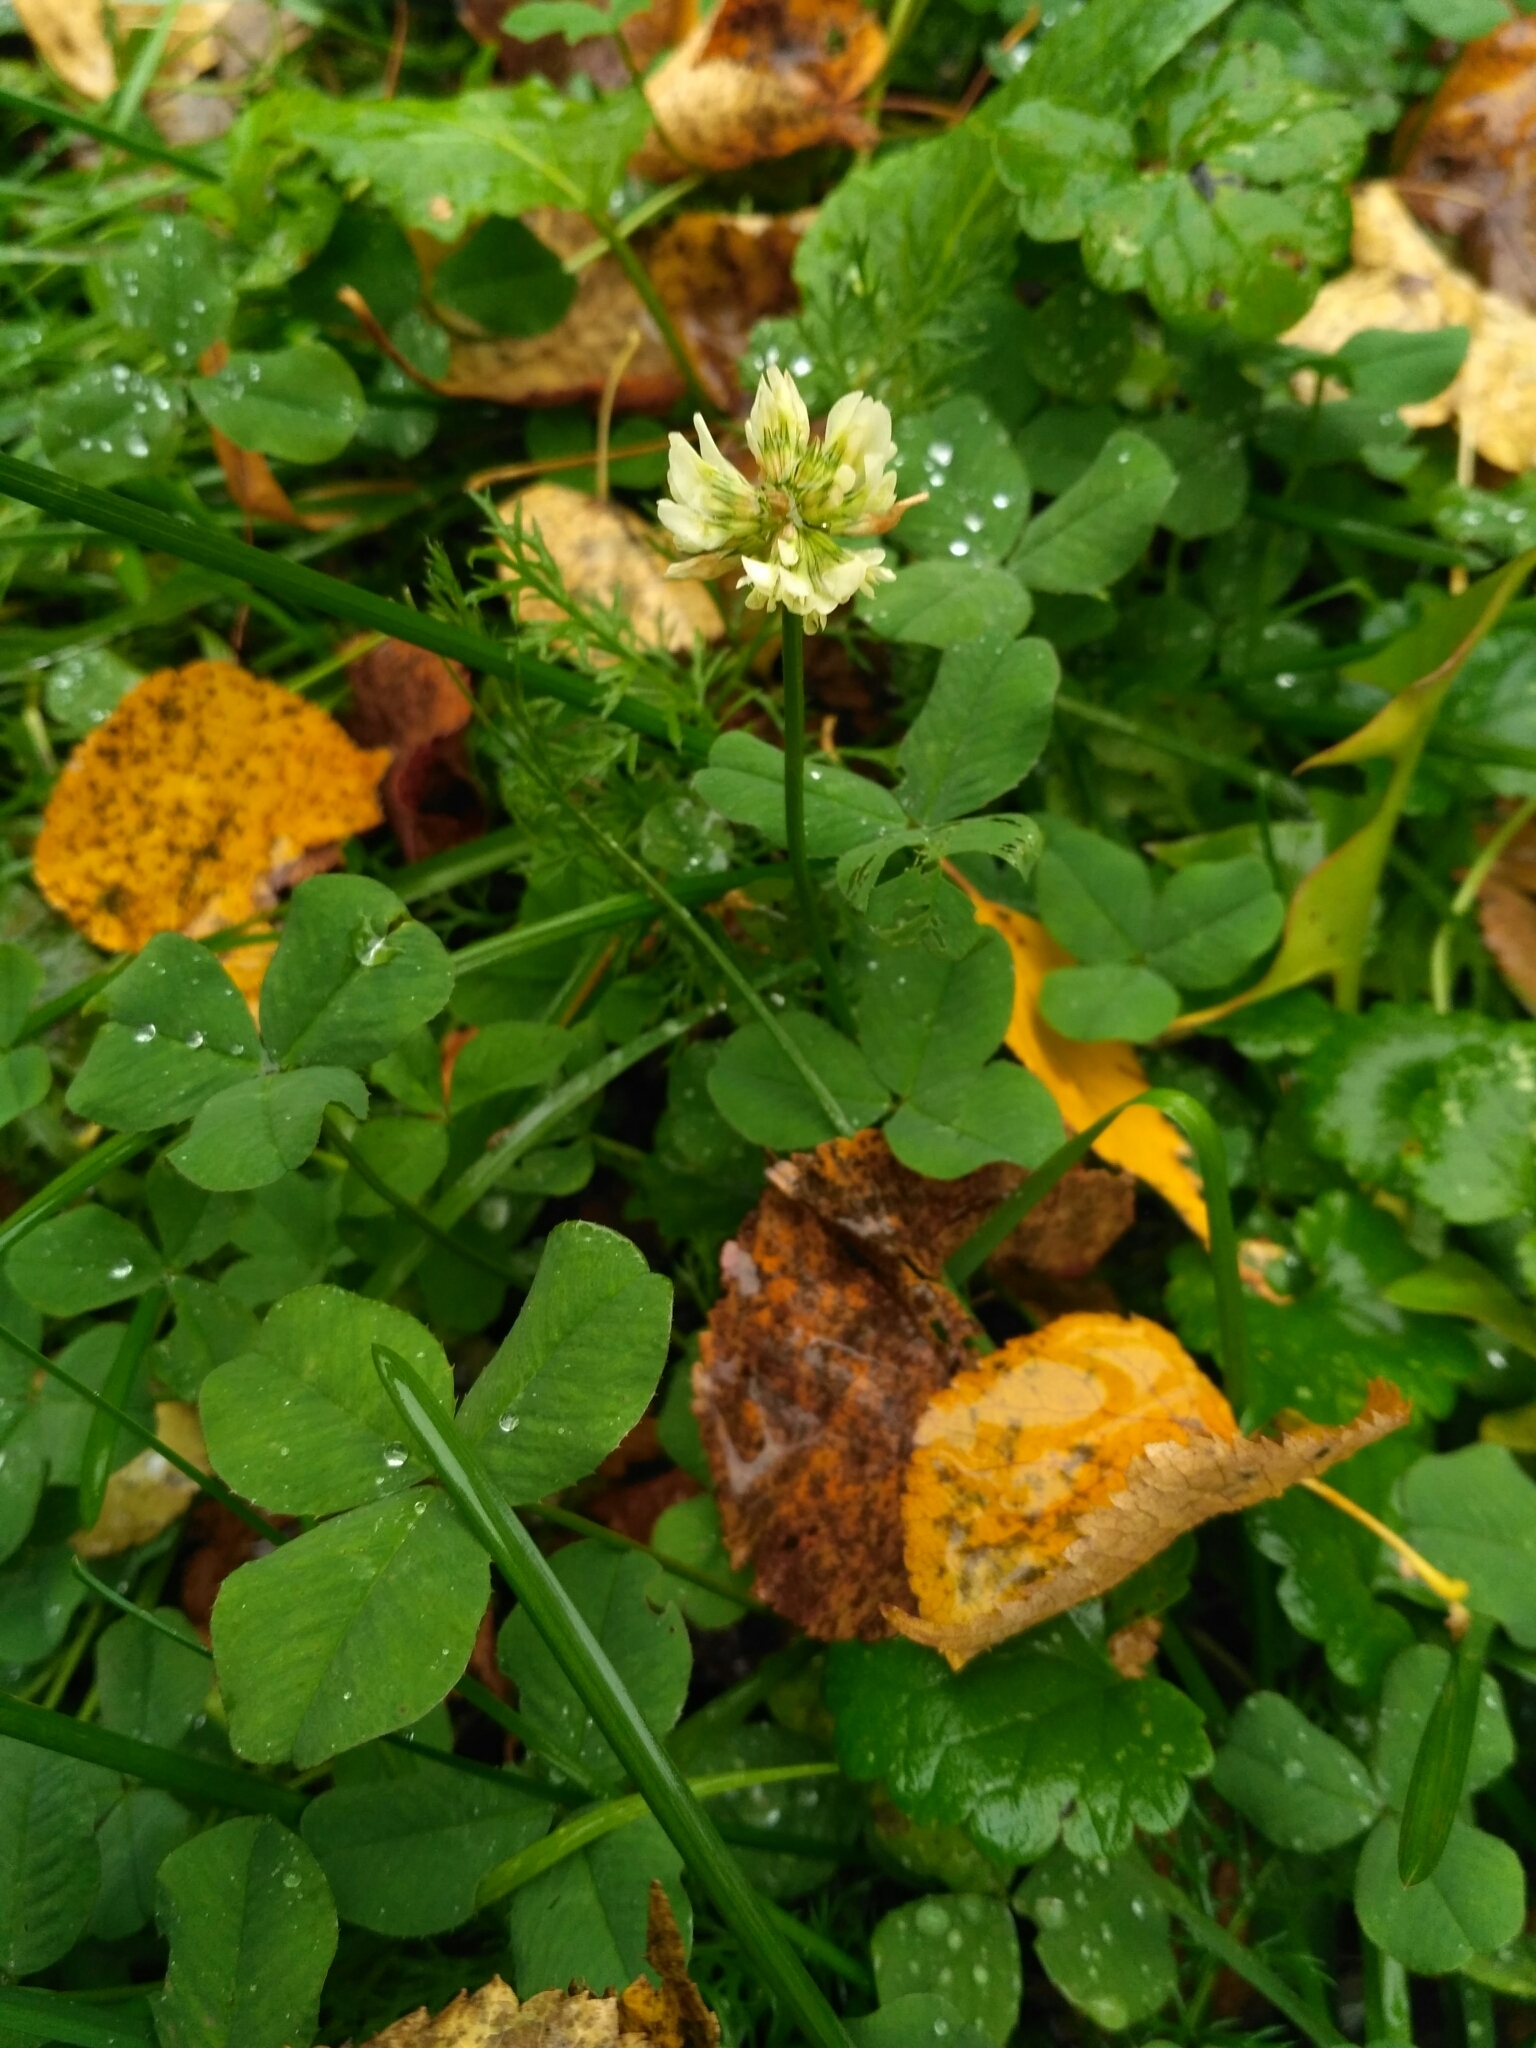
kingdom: Plantae
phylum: Tracheophyta
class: Magnoliopsida
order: Fabales
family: Fabaceae
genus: Trifolium
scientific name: Trifolium repens
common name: White clover
